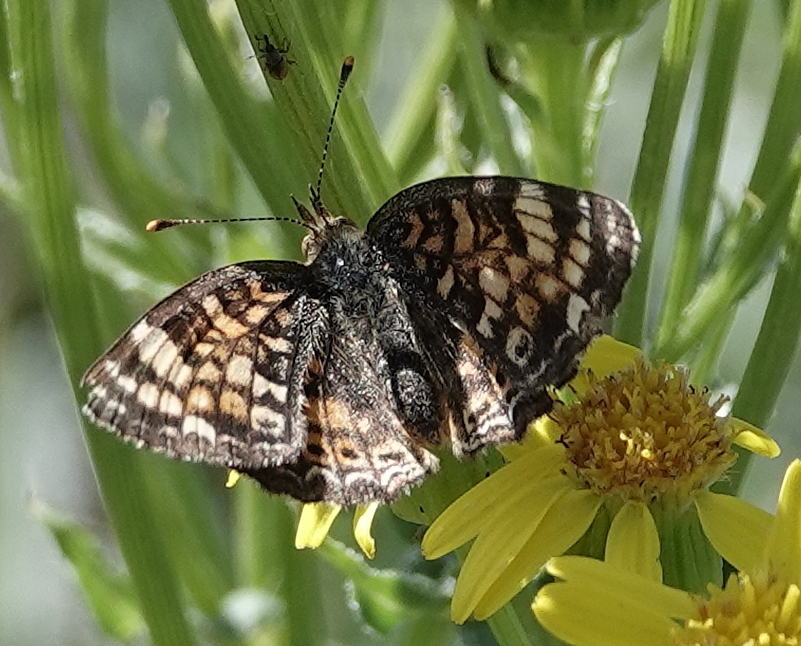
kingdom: Animalia
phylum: Arthropoda
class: Insecta
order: Lepidoptera
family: Nymphalidae
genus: Phyciodes
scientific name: Phyciodes tharos
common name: Pearl crescent
